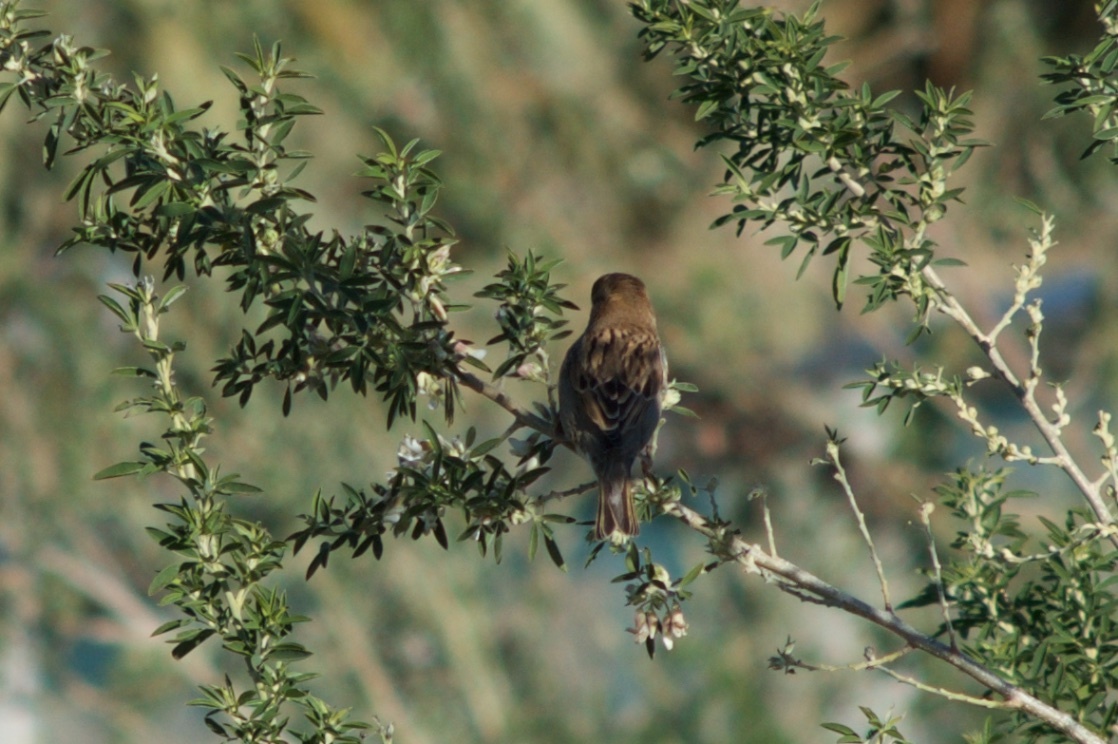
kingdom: Animalia
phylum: Chordata
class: Aves
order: Passeriformes
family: Passeridae
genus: Passer
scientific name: Passer domesticus
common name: House sparrow
